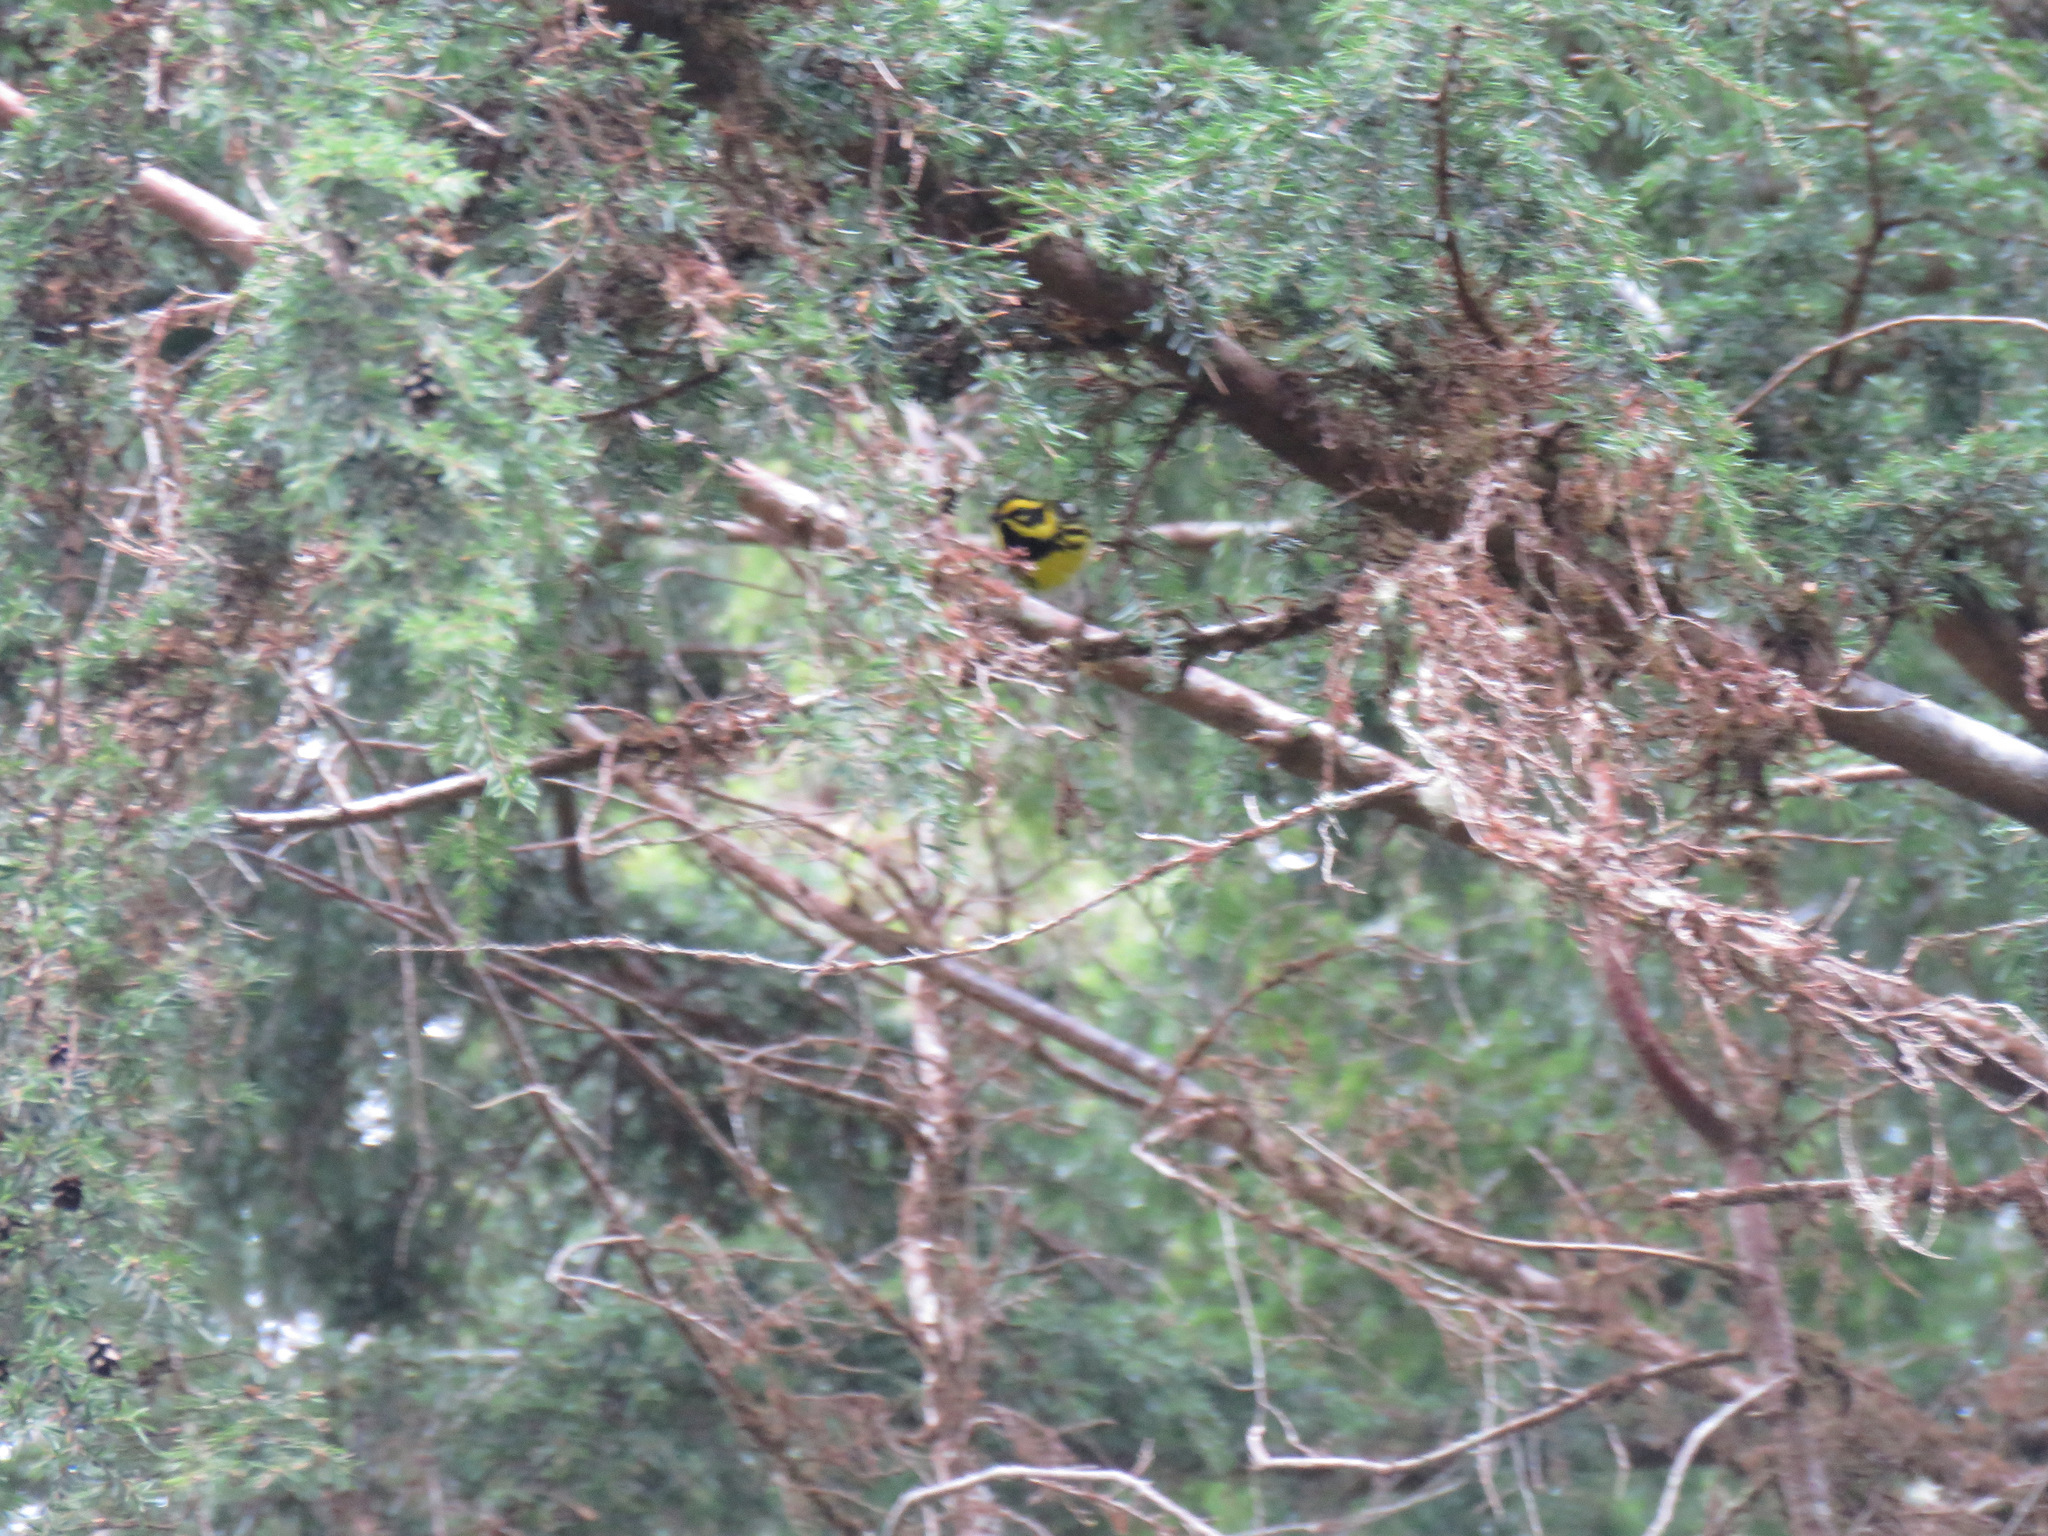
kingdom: Animalia
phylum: Chordata
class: Aves
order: Passeriformes
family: Parulidae
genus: Setophaga
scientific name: Setophaga townsendi
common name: Townsend's warbler
